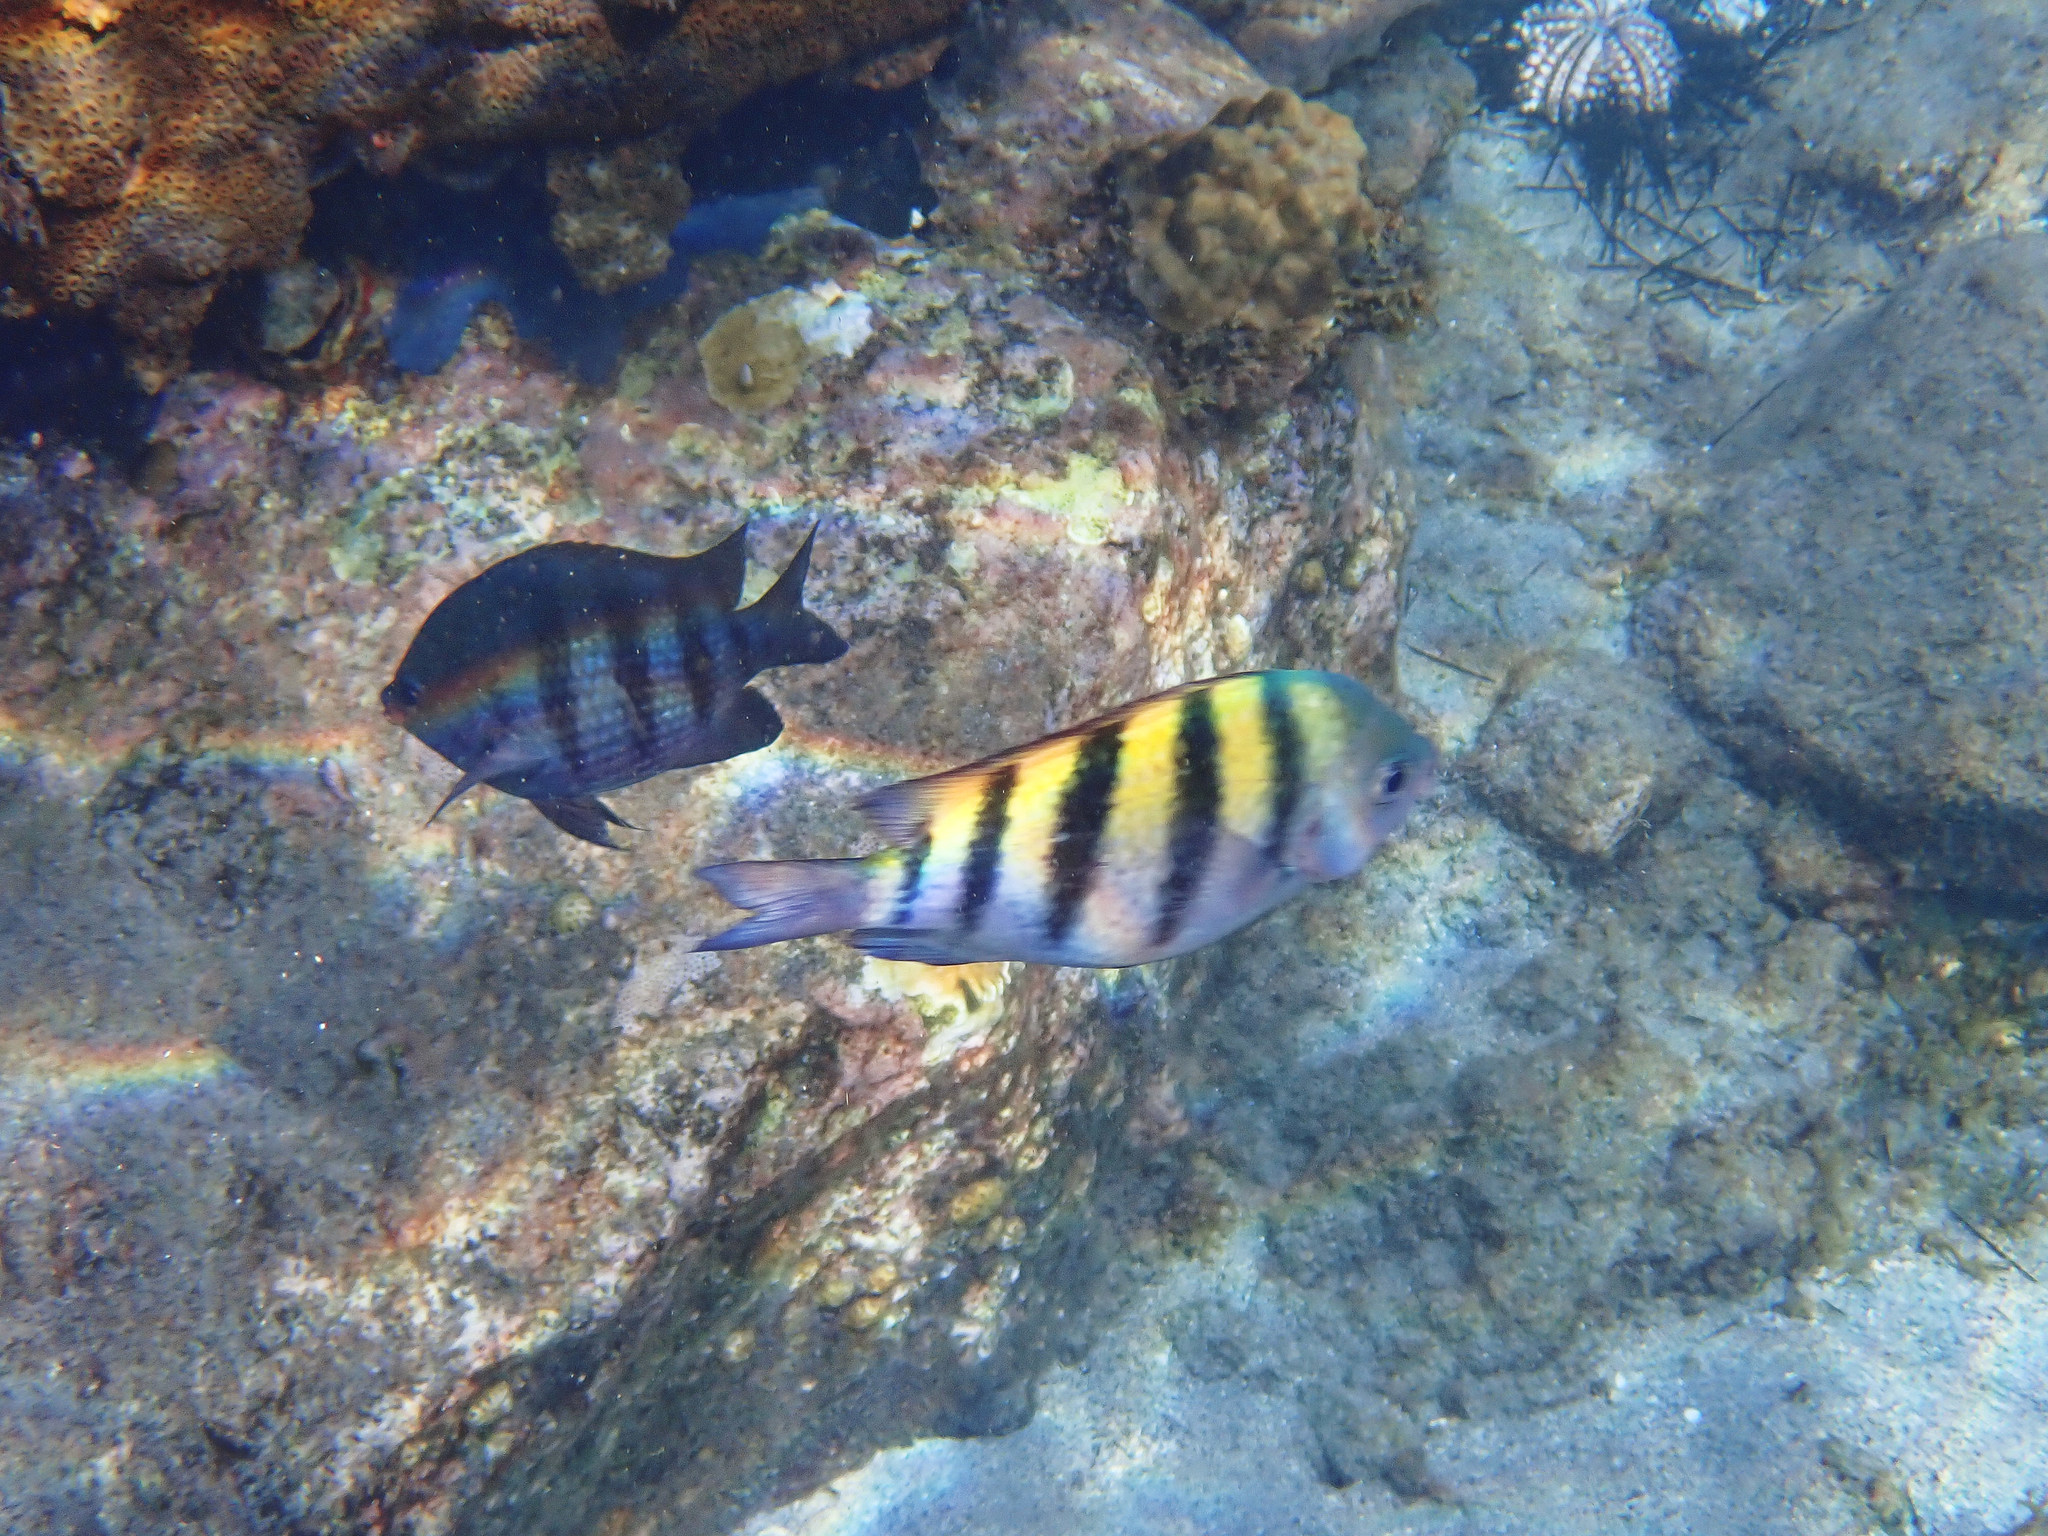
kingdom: Animalia
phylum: Chordata
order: Perciformes
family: Pomacentridae
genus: Abudefduf
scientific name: Abudefduf saxatilis
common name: Sergeant major
